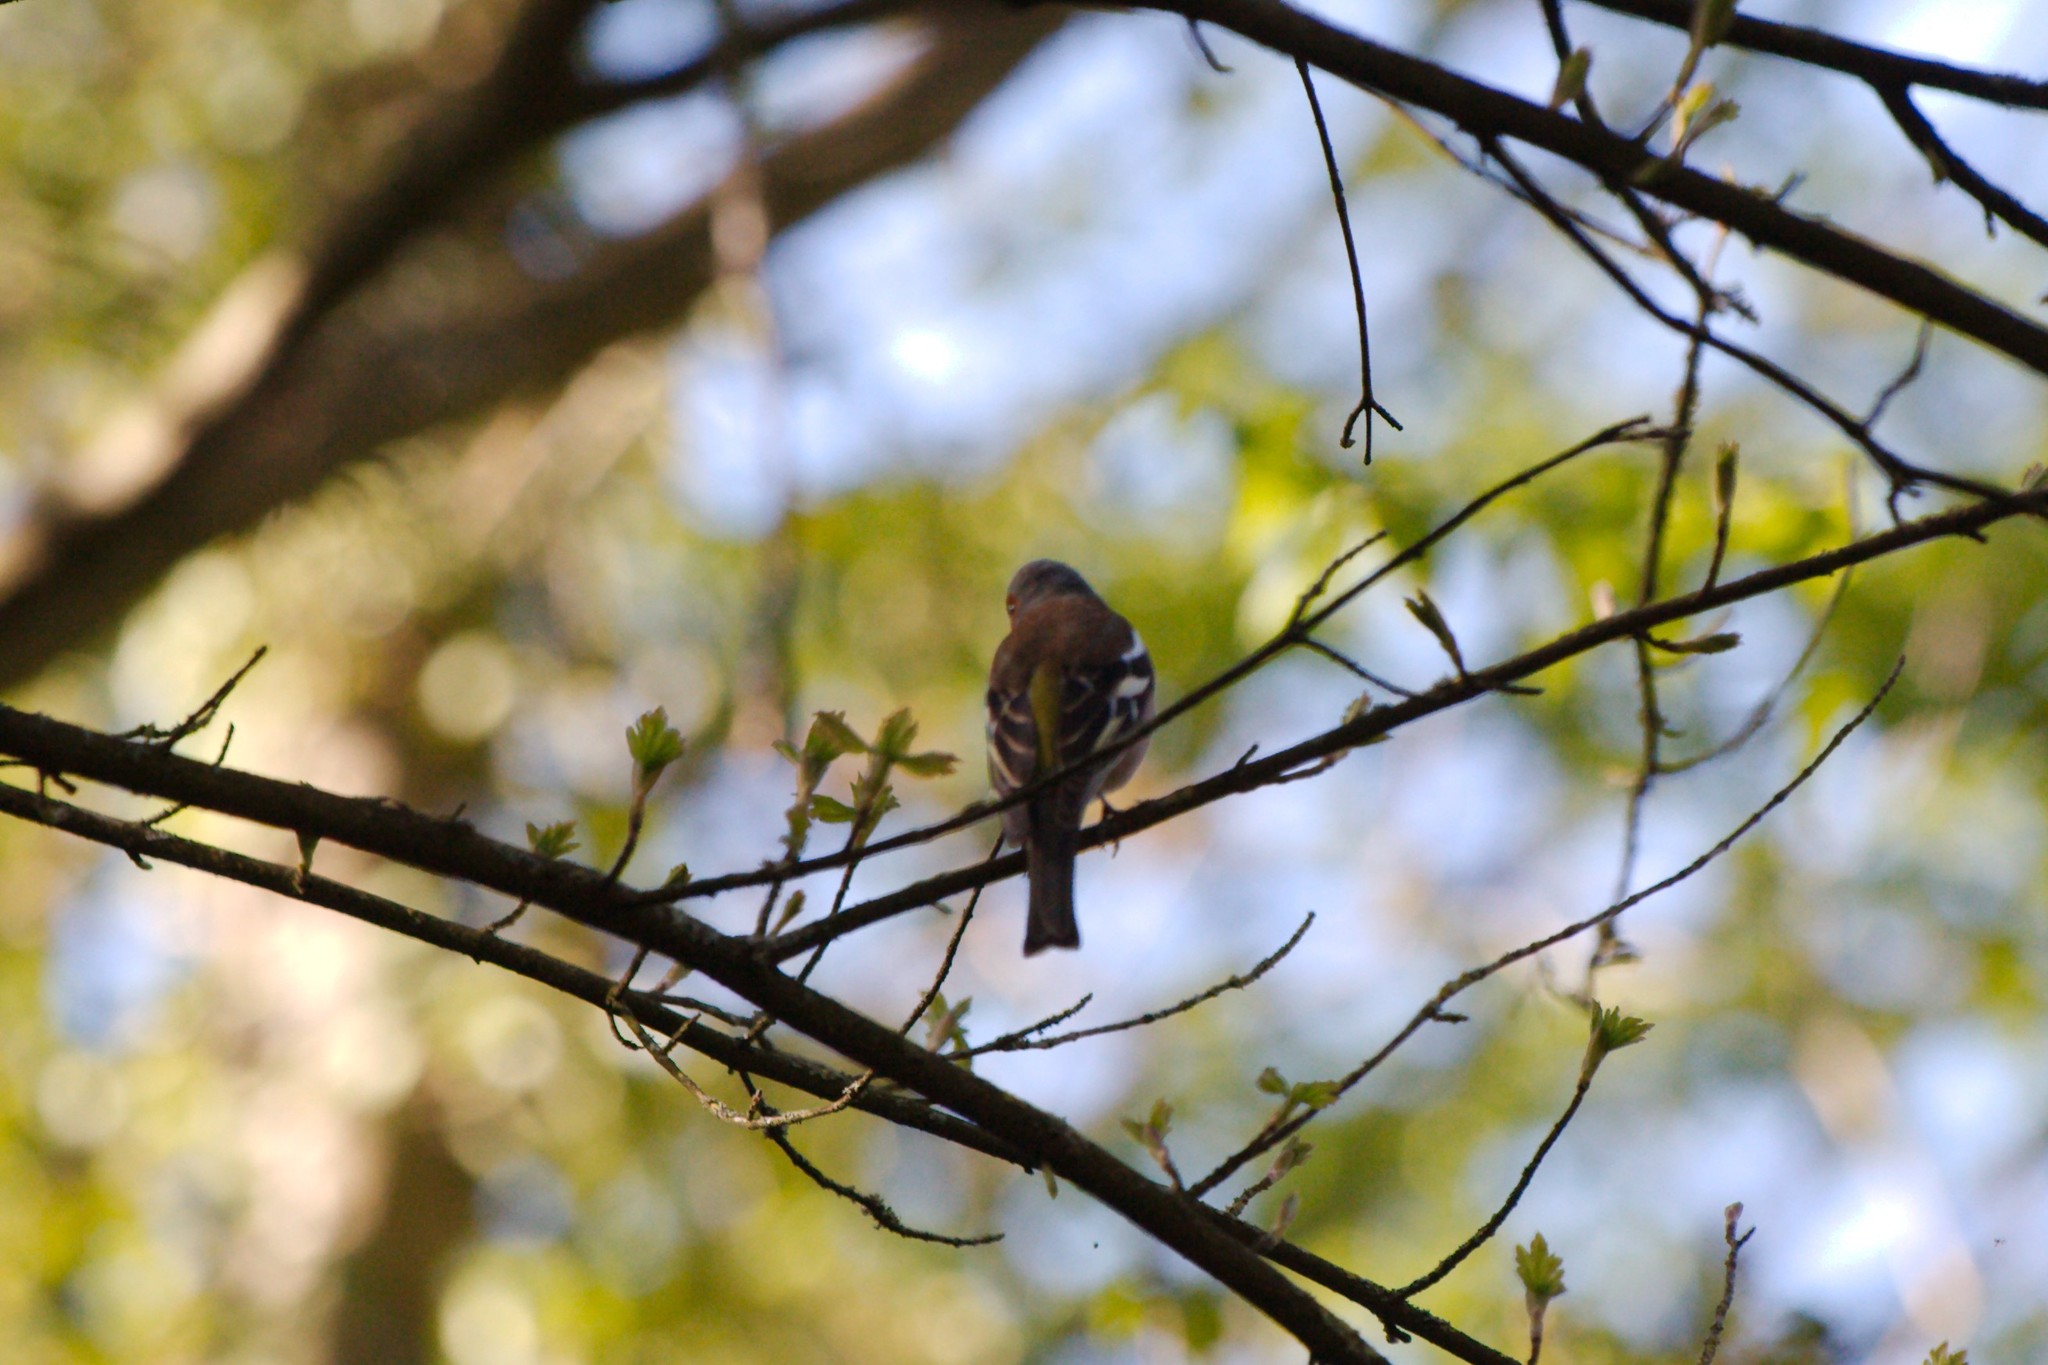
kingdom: Animalia
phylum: Chordata
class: Aves
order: Passeriformes
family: Fringillidae
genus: Fringilla
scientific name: Fringilla coelebs
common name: Common chaffinch
